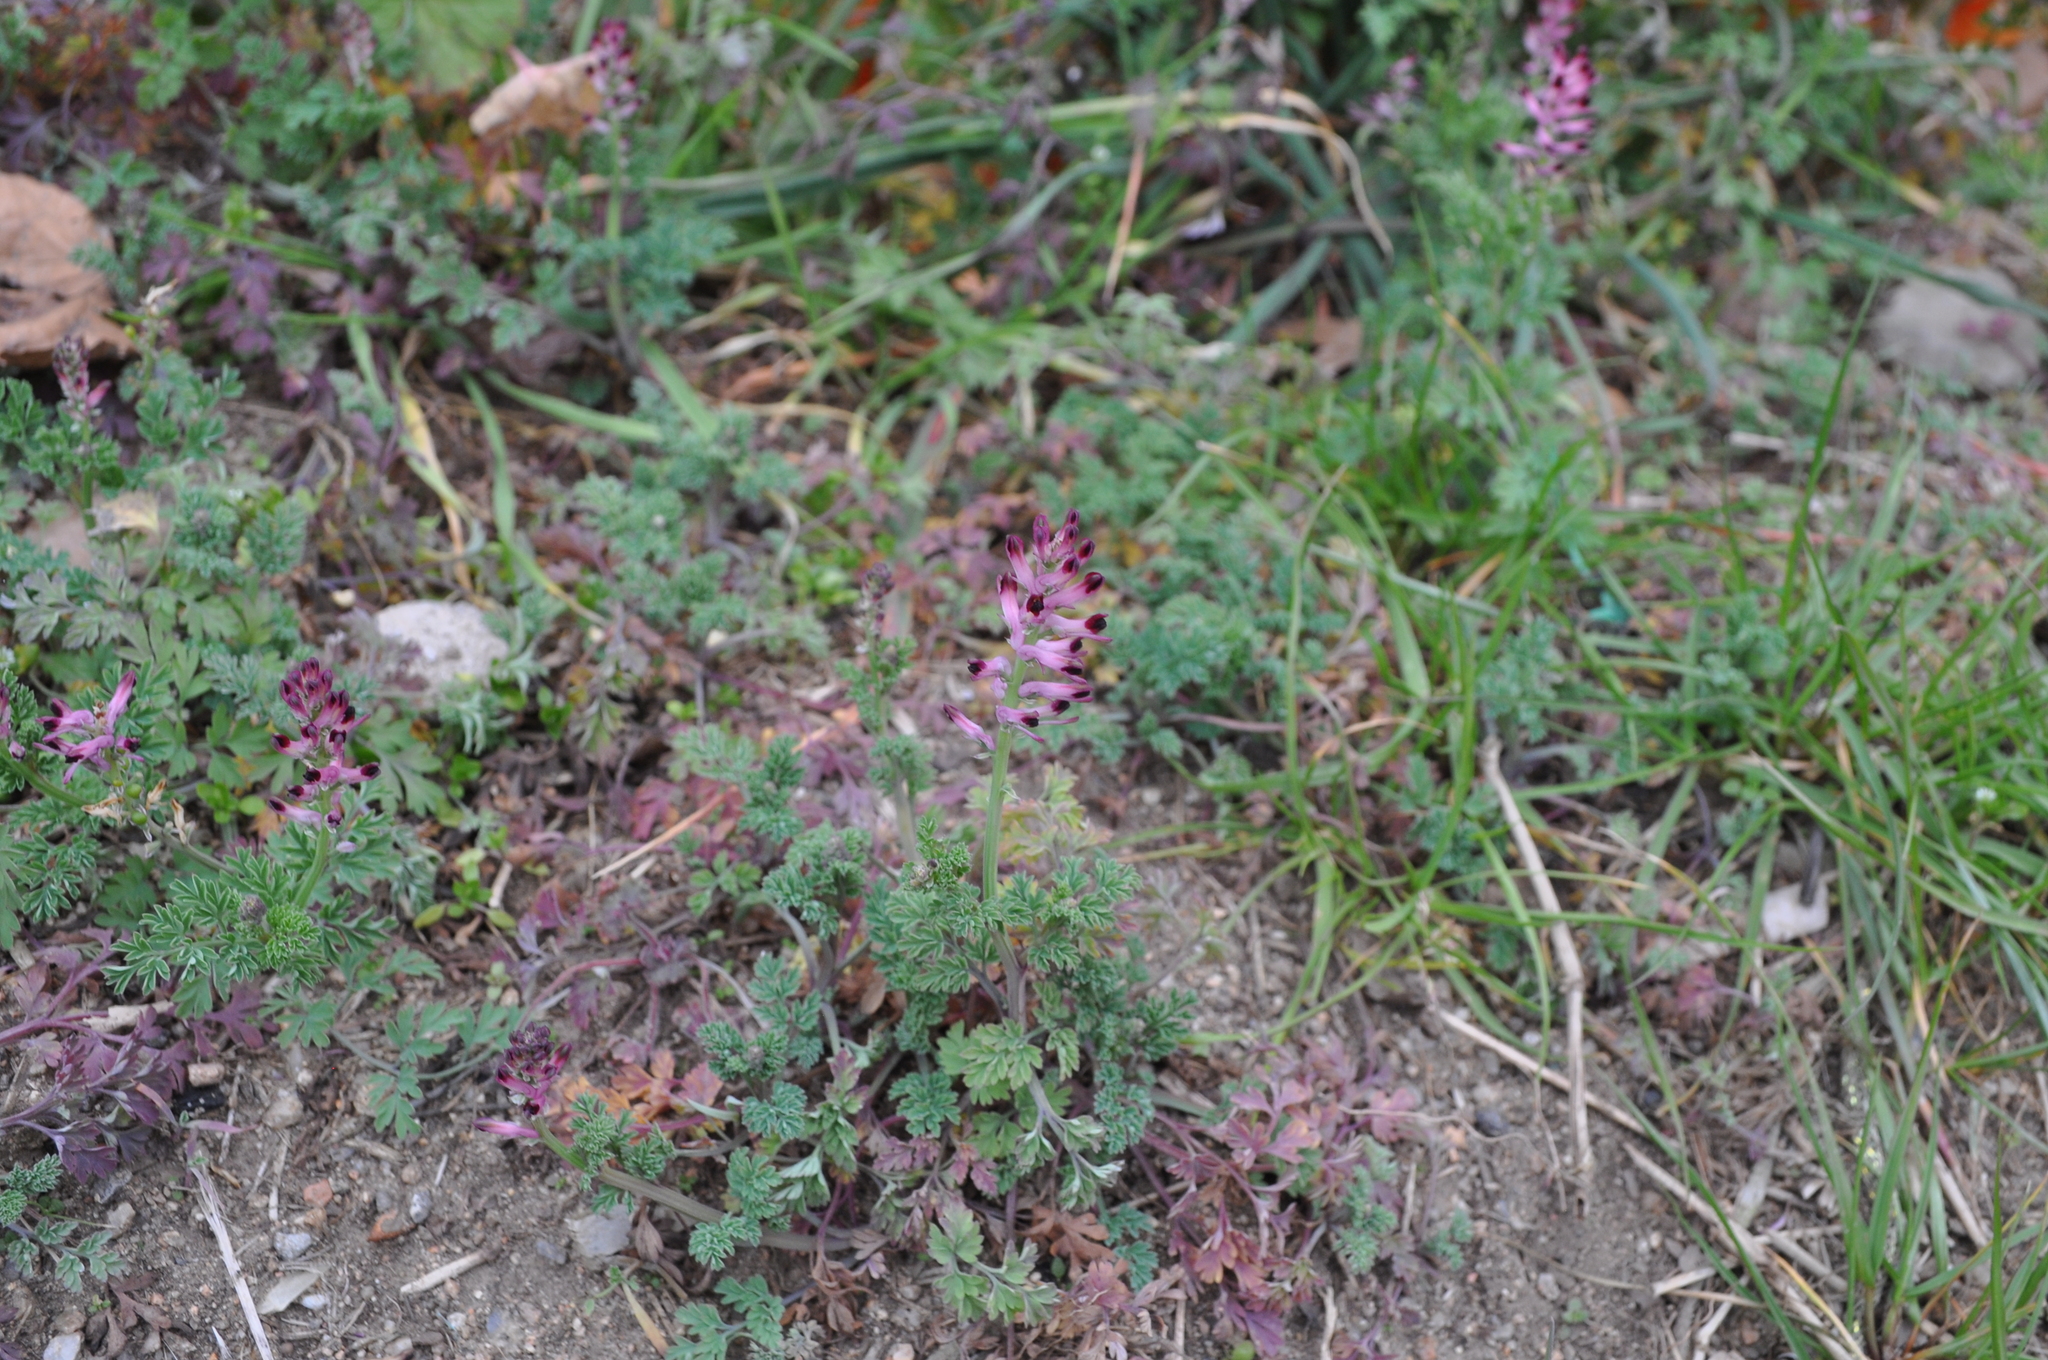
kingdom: Plantae
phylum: Tracheophyta
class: Magnoliopsida
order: Ranunculales
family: Papaveraceae
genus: Fumaria
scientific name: Fumaria bastardii
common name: Tall ramping-fumitory
